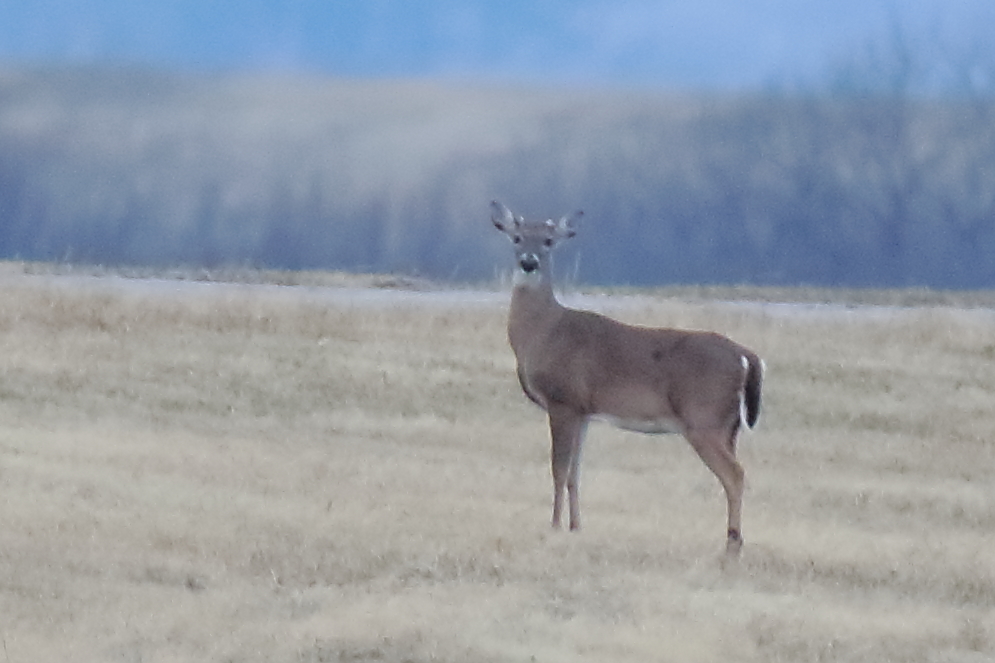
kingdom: Animalia
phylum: Chordata
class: Mammalia
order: Artiodactyla
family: Cervidae
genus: Odocoileus
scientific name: Odocoileus virginianus
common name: White-tailed deer
